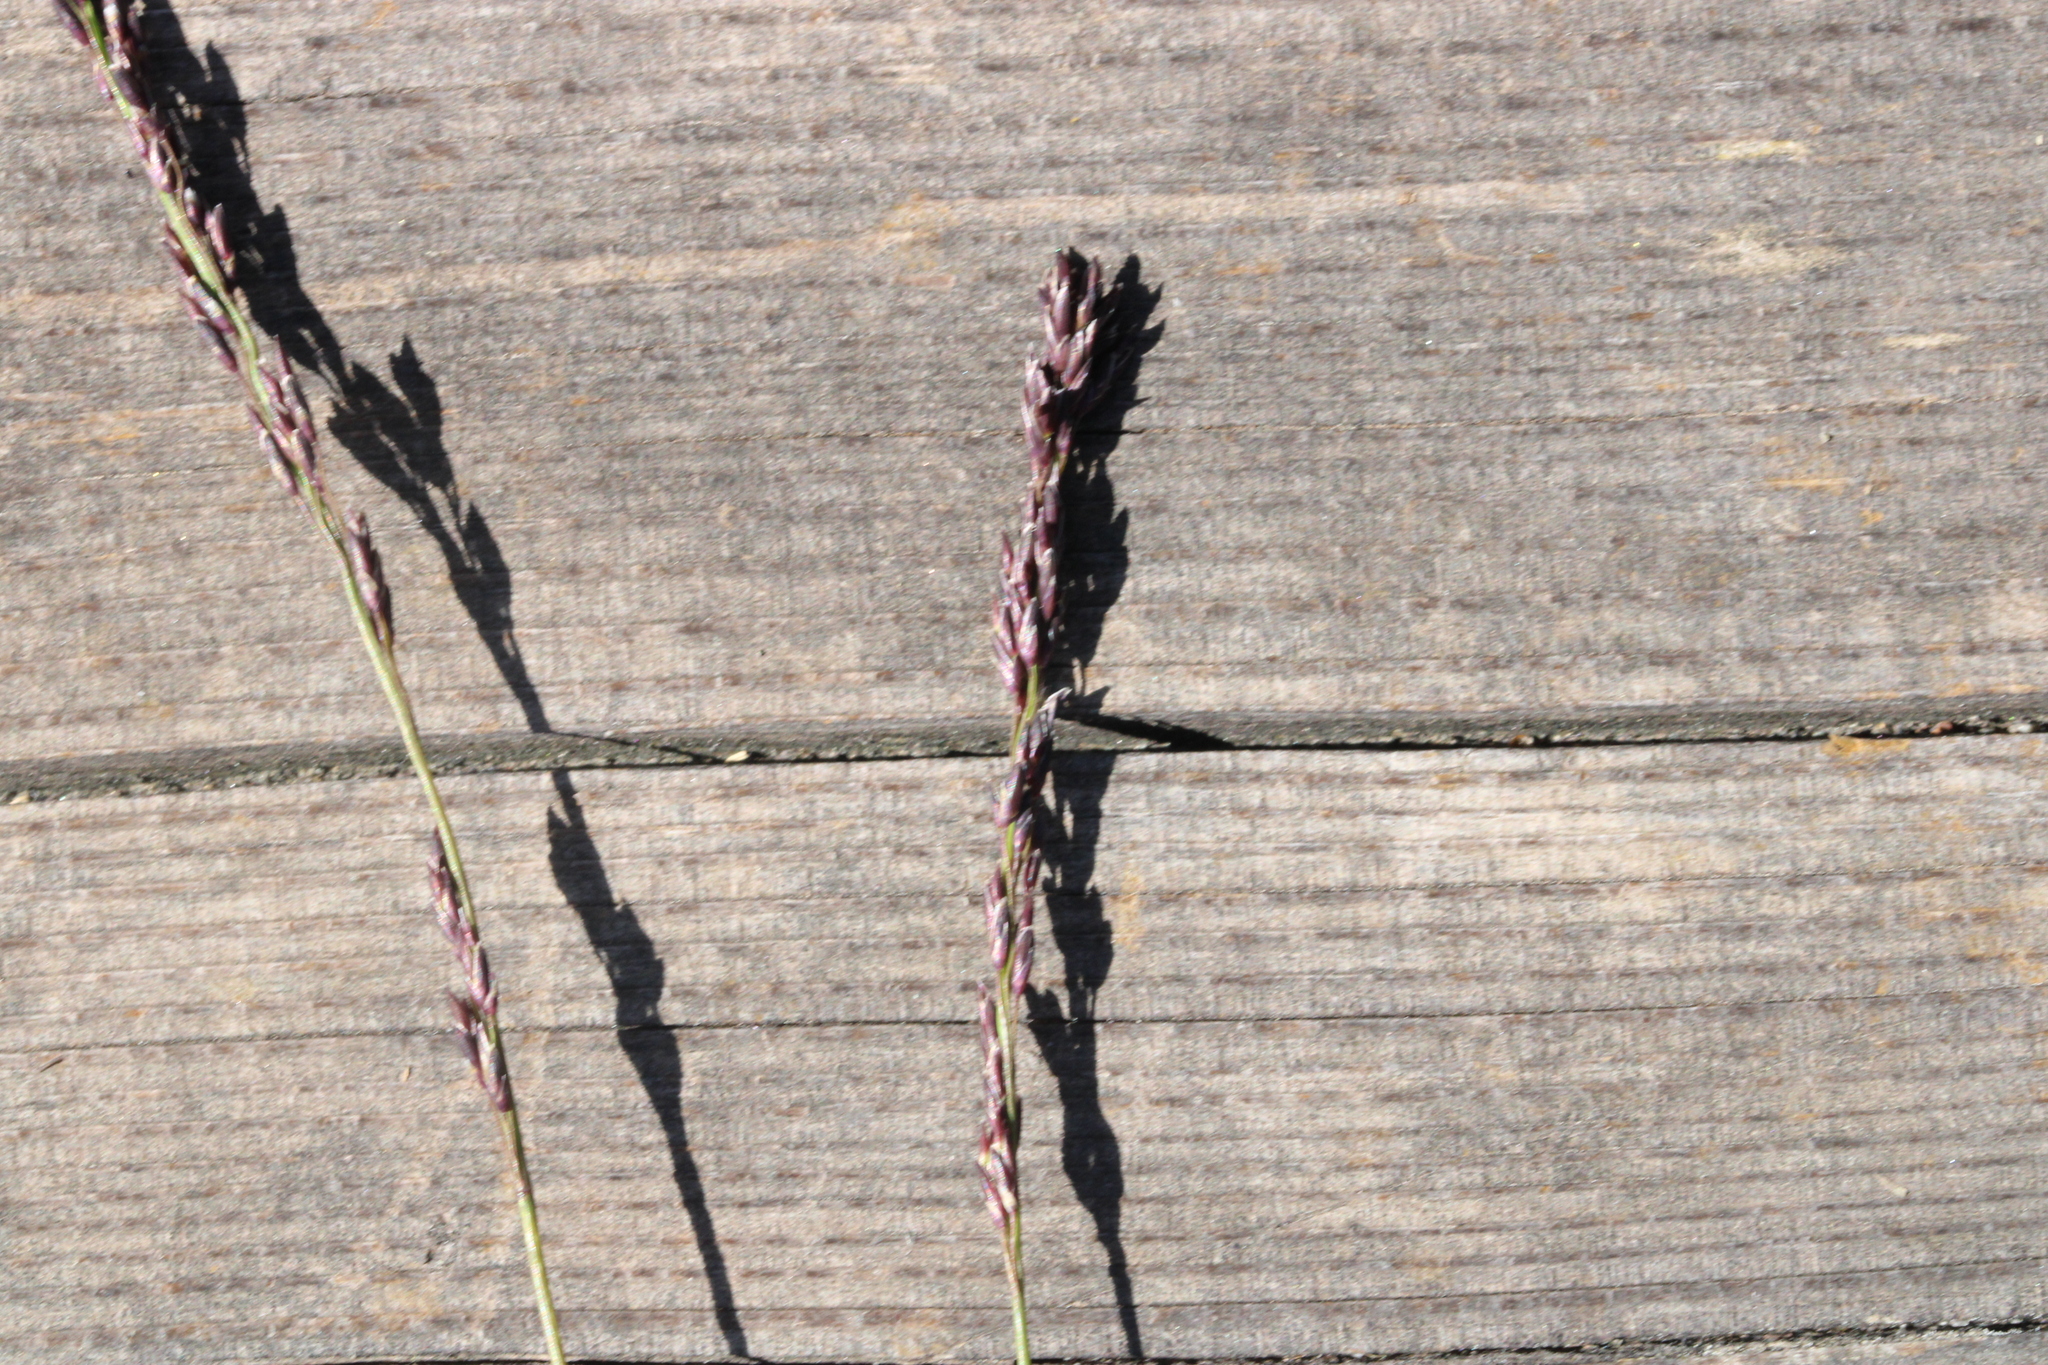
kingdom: Plantae
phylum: Tracheophyta
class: Liliopsida
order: Poales
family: Poaceae
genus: Molinia
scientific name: Molinia caerulea
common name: Purple moor-grass
